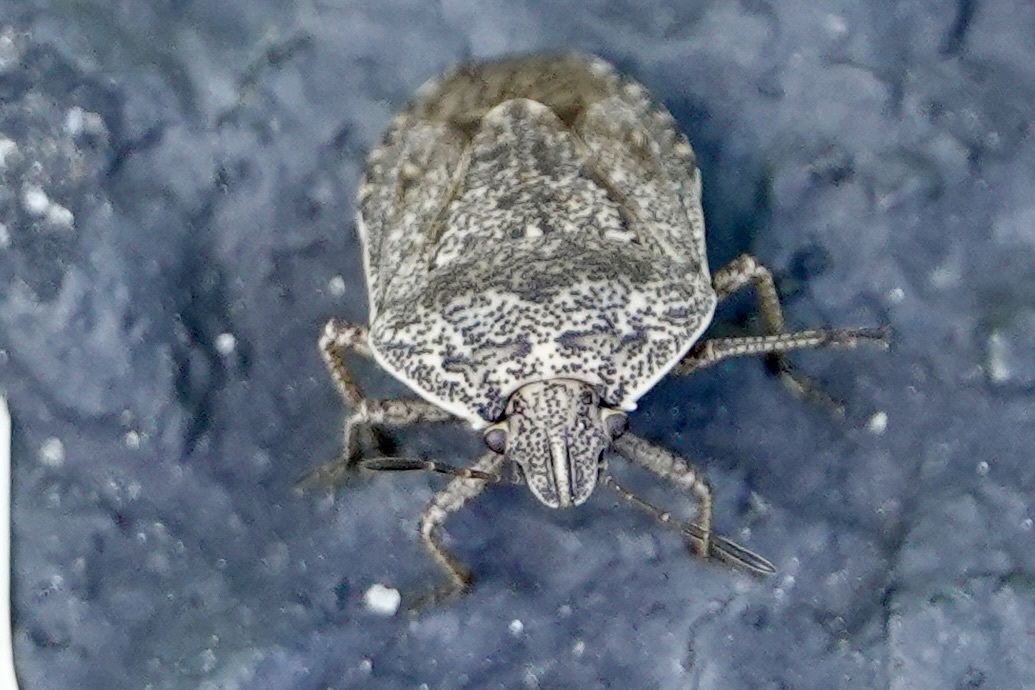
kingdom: Animalia
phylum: Arthropoda
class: Insecta
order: Hemiptera
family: Pentatomidae
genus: Hymenarcys
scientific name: Hymenarcys nervosa
